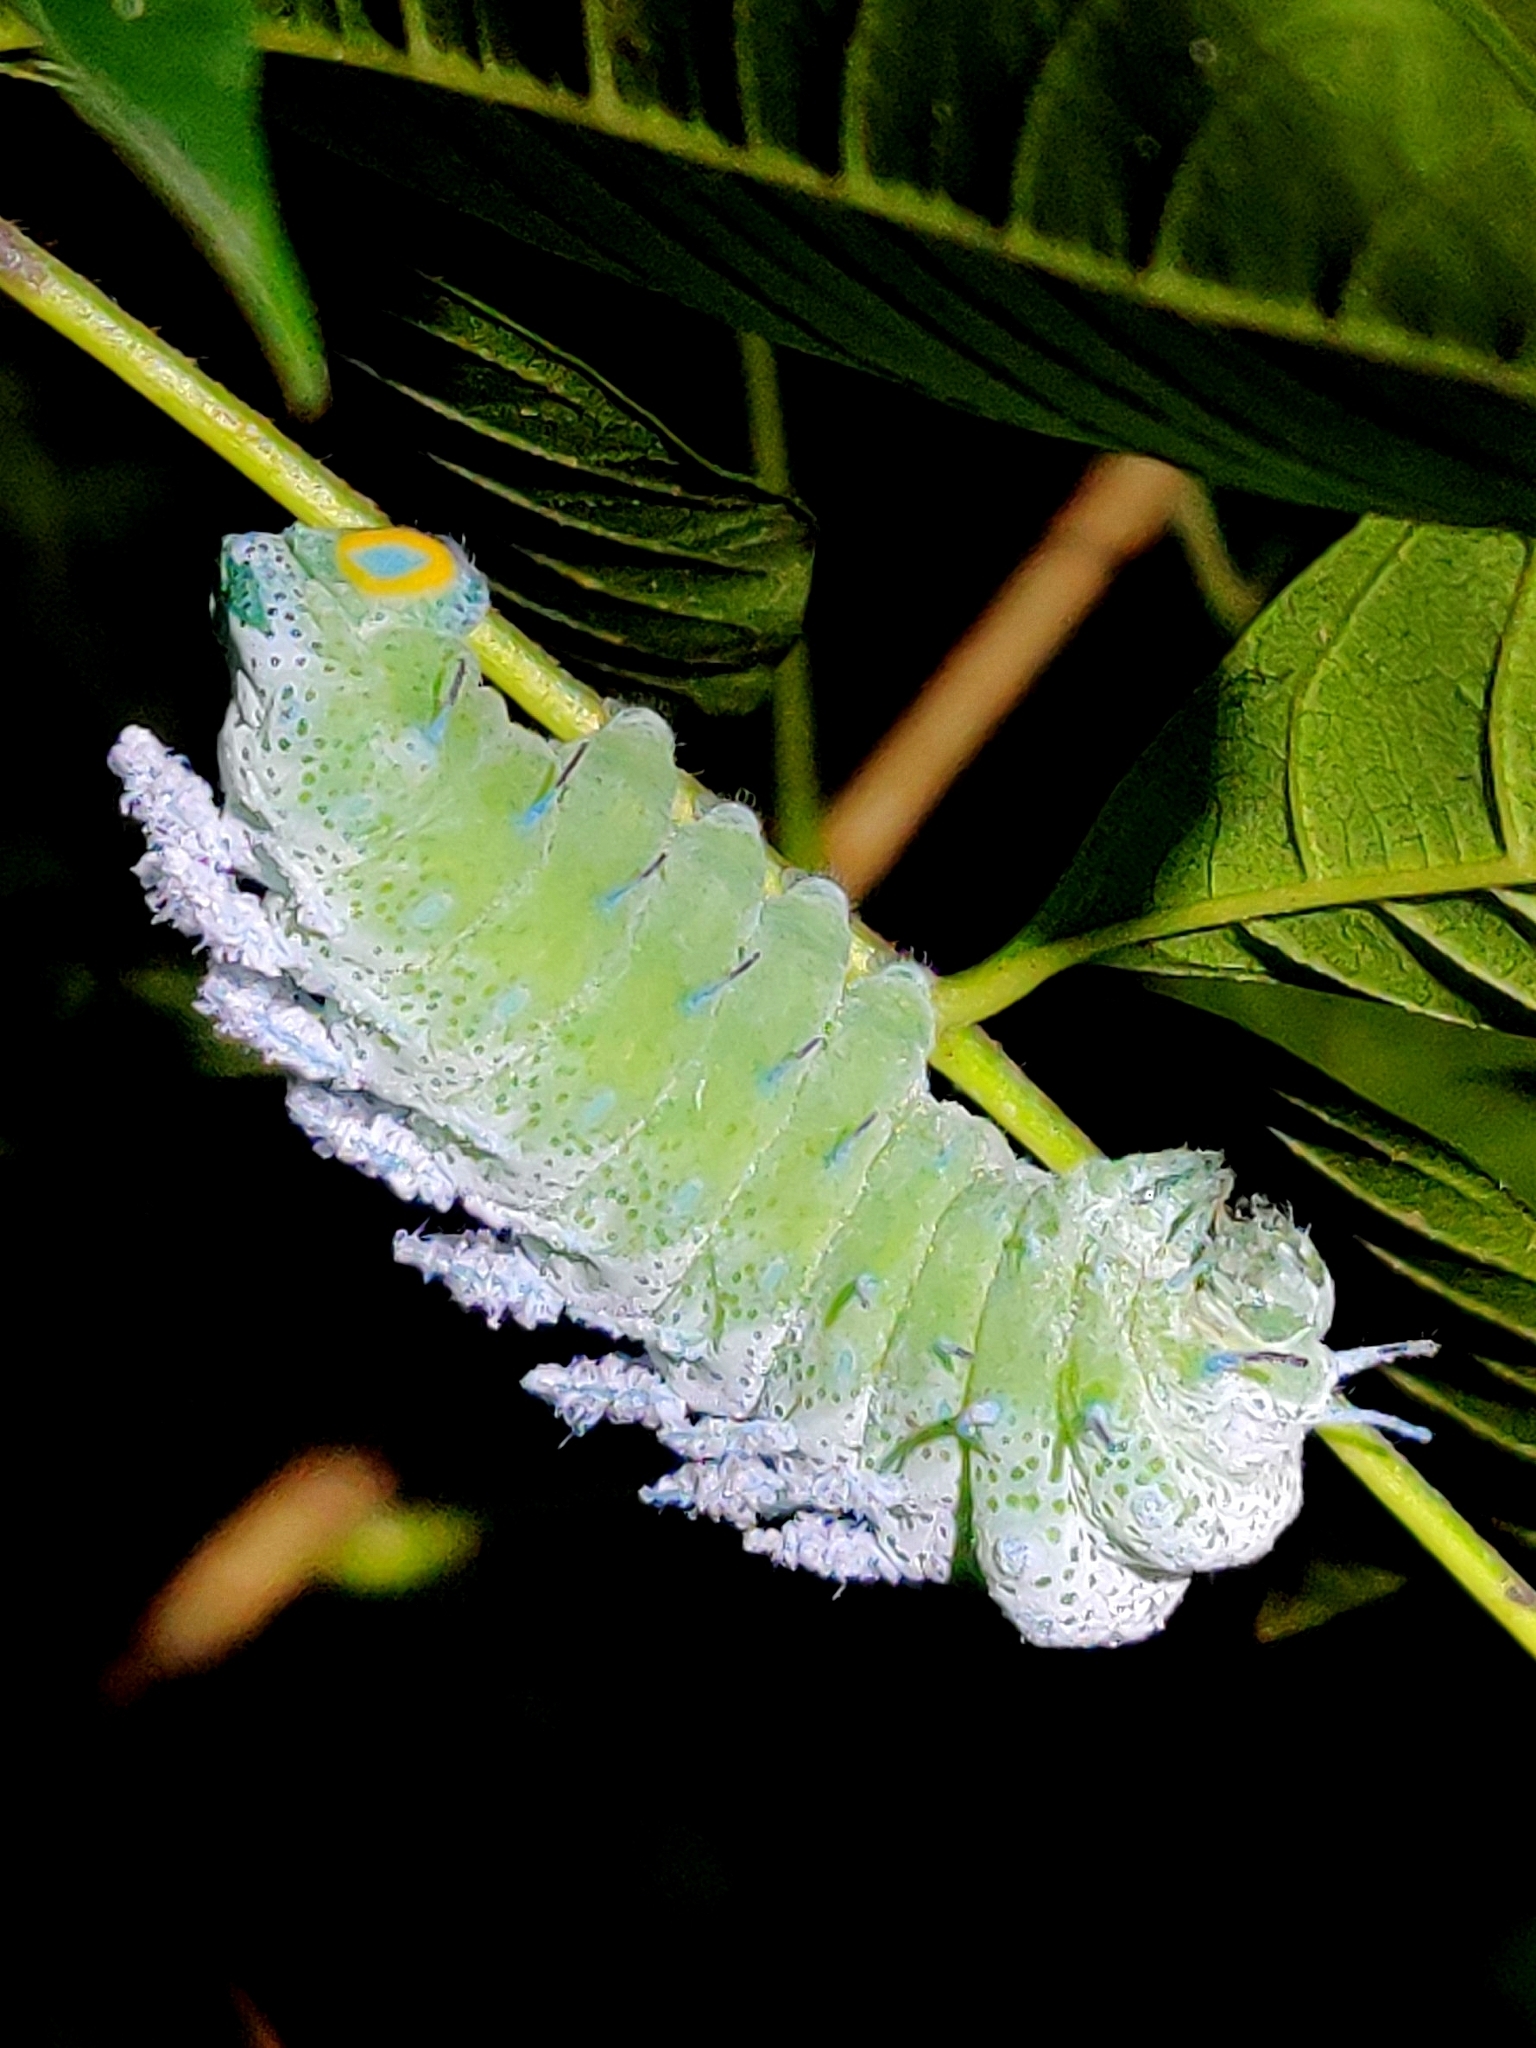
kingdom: Animalia
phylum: Arthropoda
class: Insecta
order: Lepidoptera
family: Saturniidae
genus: Attacus
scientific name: Attacus taprobanis
